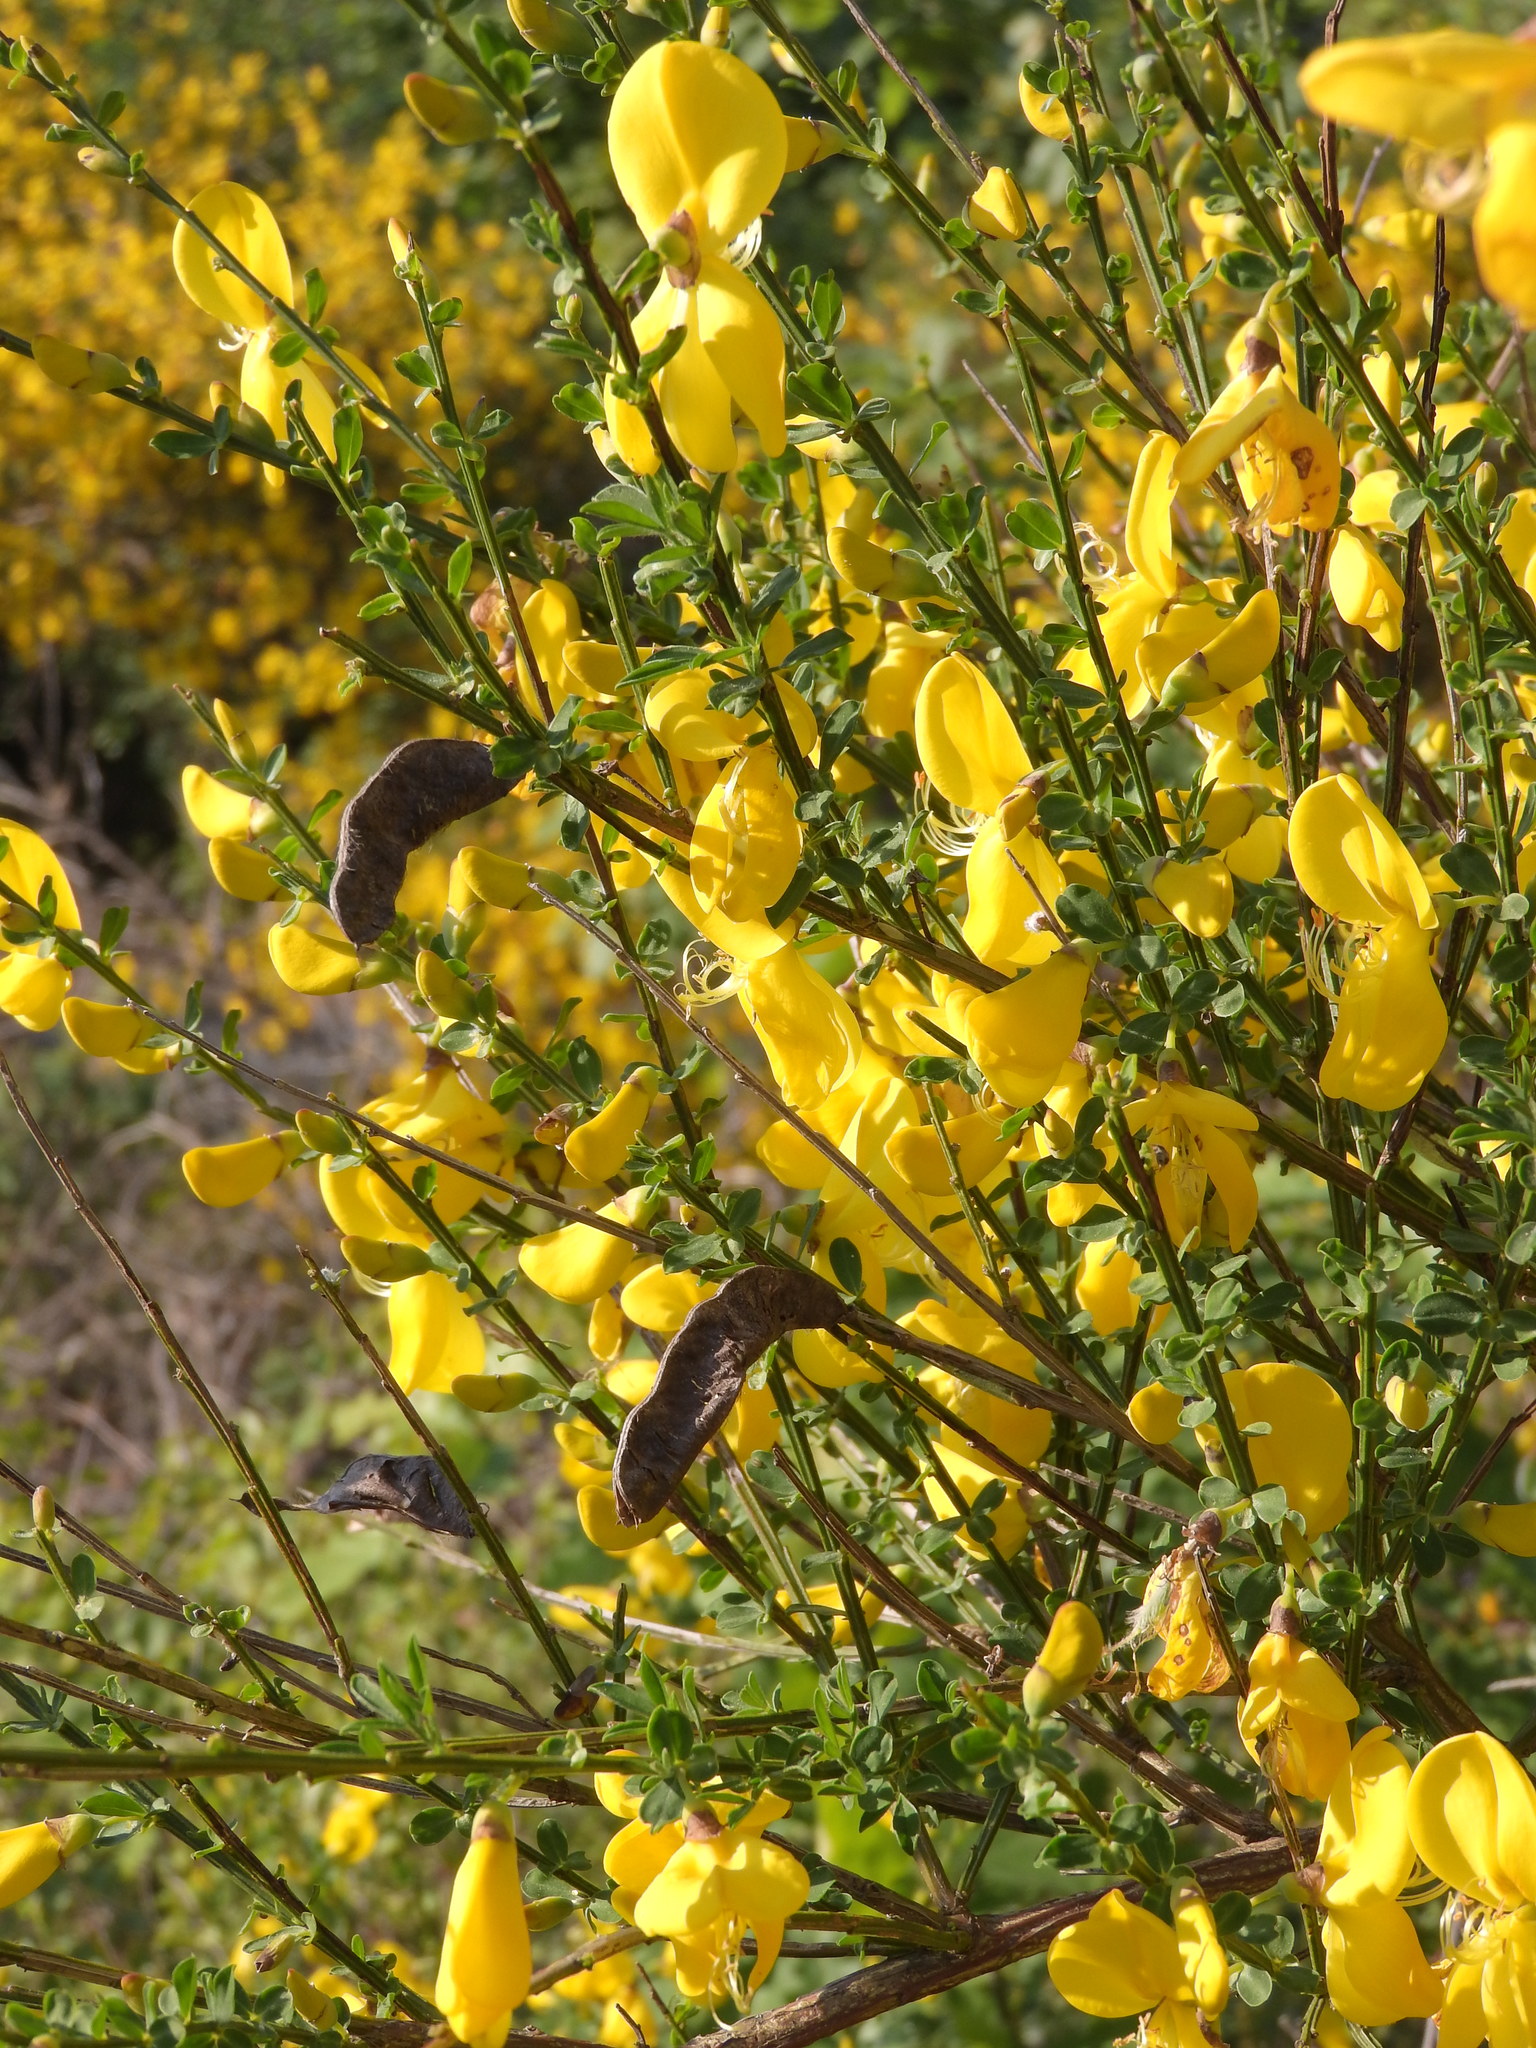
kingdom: Plantae
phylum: Tracheophyta
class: Magnoliopsida
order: Fabales
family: Fabaceae
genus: Cytisus
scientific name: Cytisus scoparius
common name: Scotch broom
